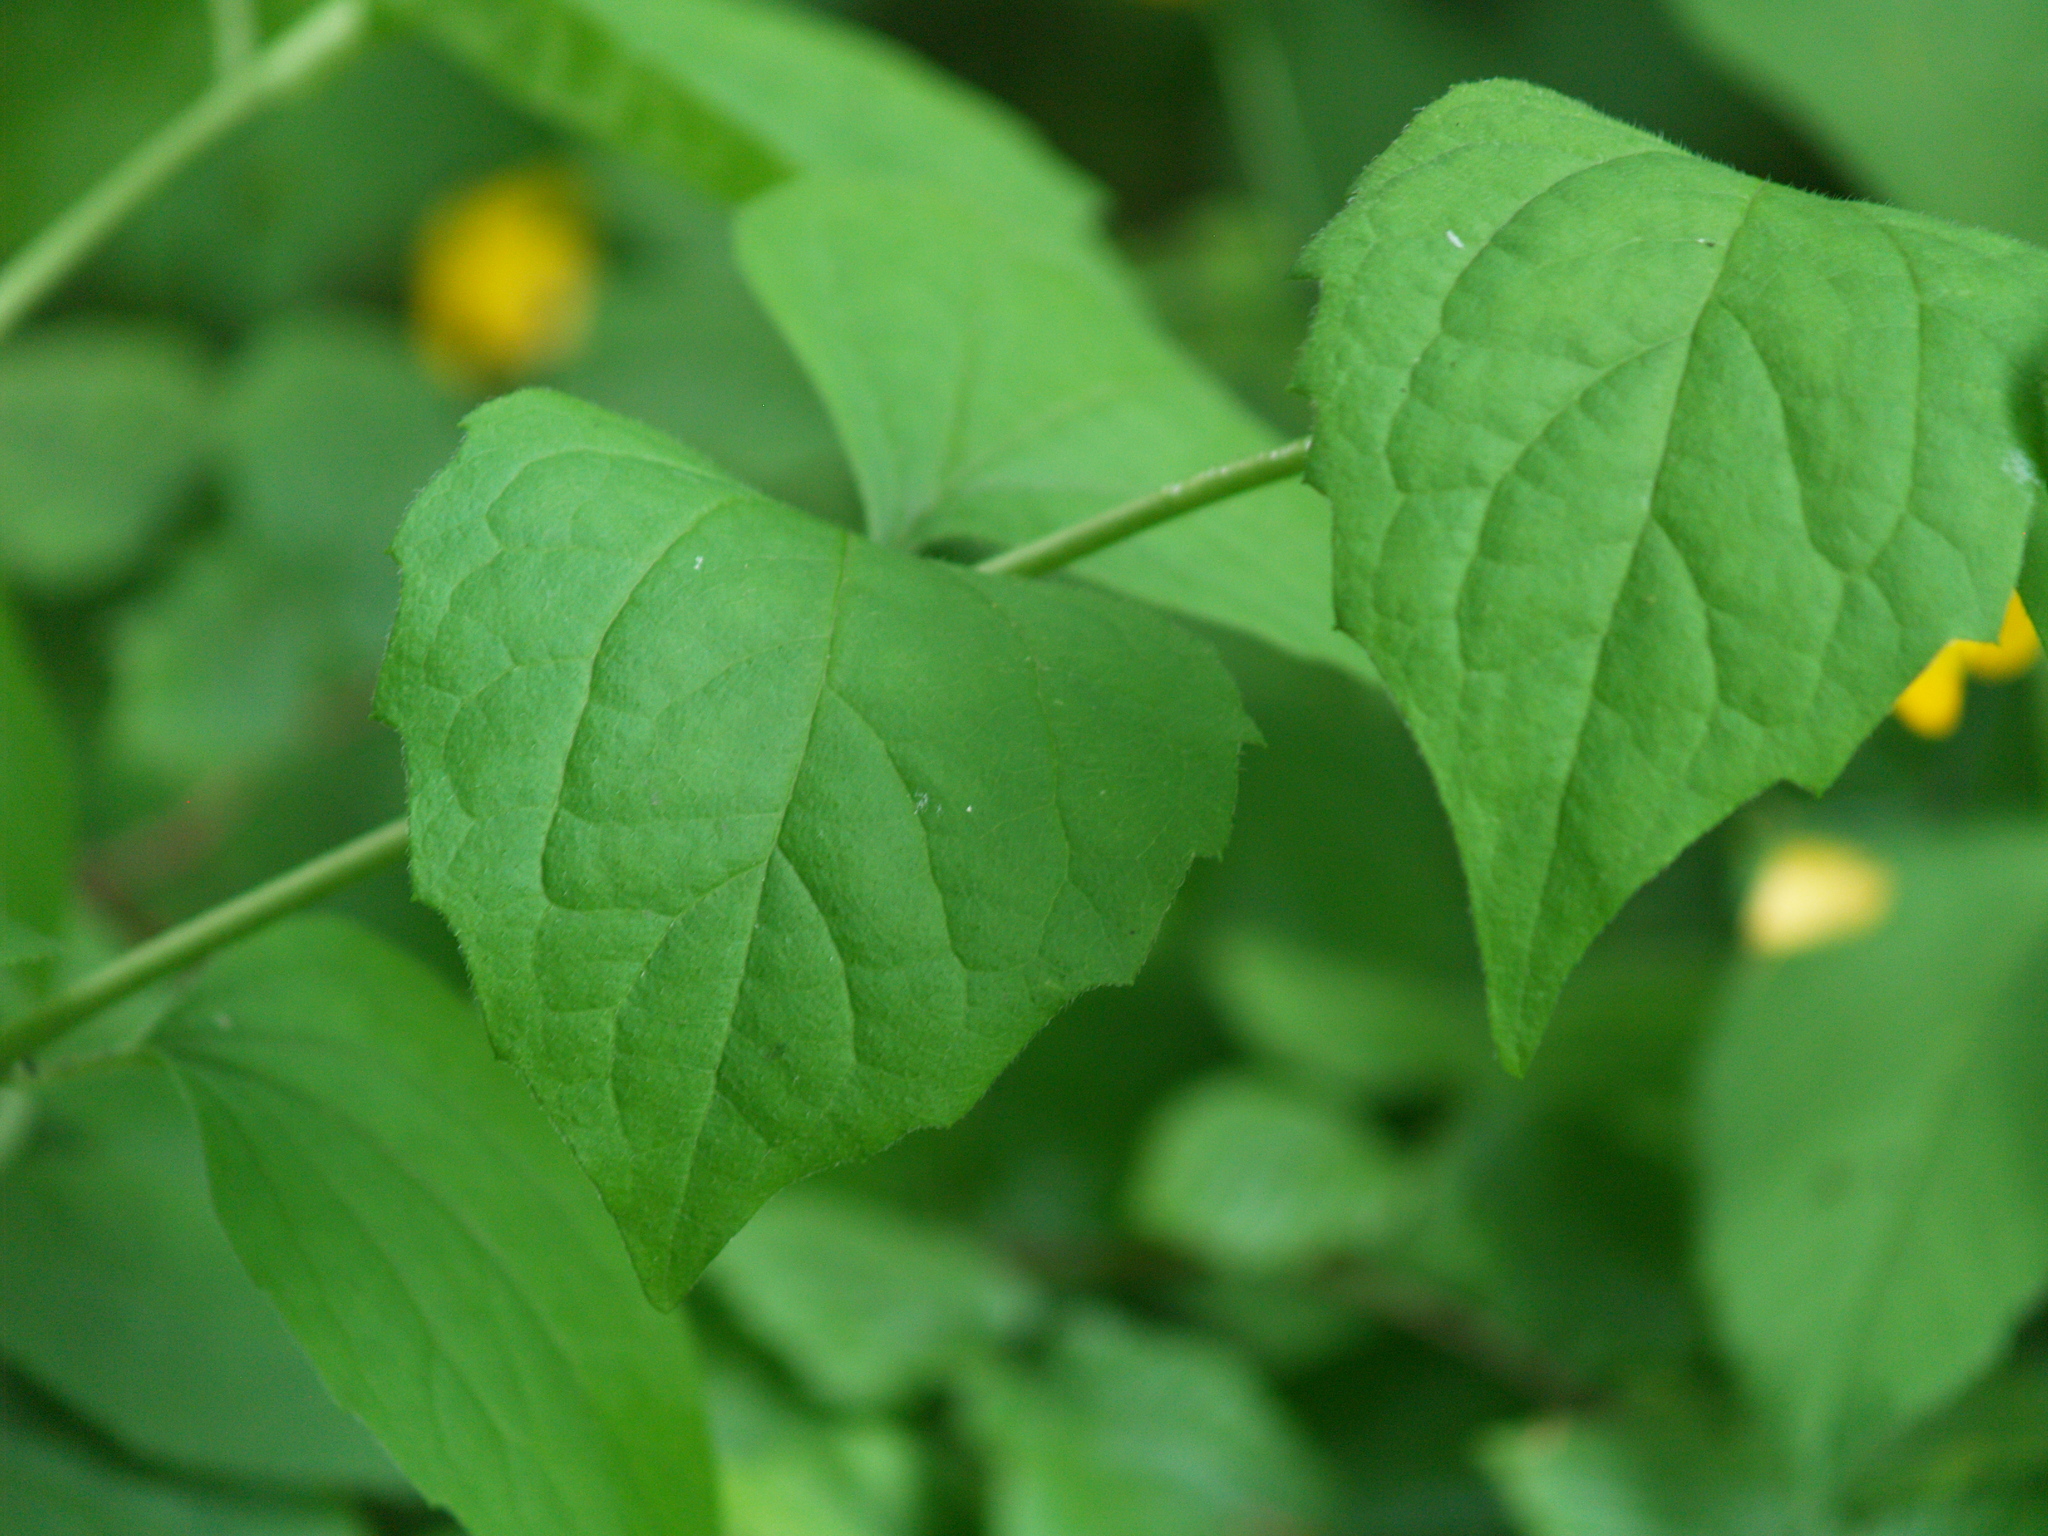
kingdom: Plantae
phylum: Tracheophyta
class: Magnoliopsida
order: Cornales
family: Hydrangeaceae
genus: Philadelphus
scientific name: Philadelphus coronarius
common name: Mock orange
